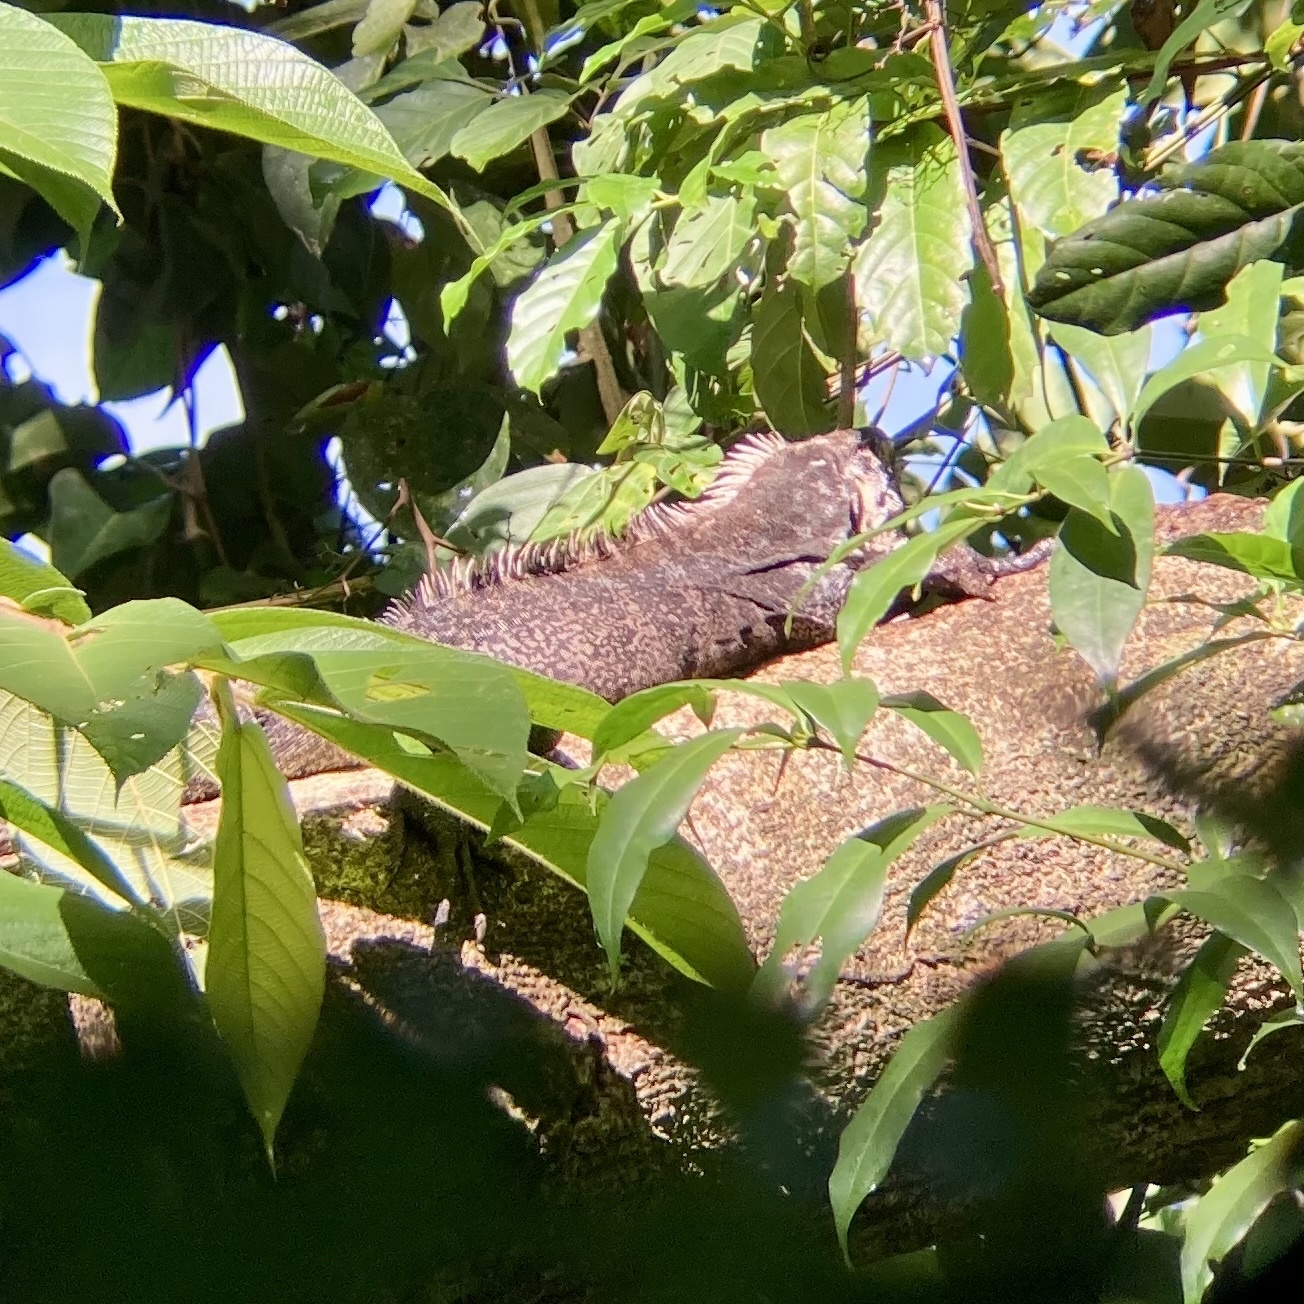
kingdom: Animalia
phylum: Chordata
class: Squamata
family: Iguanidae
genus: Iguana
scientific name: Iguana iguana
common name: Green iguana
